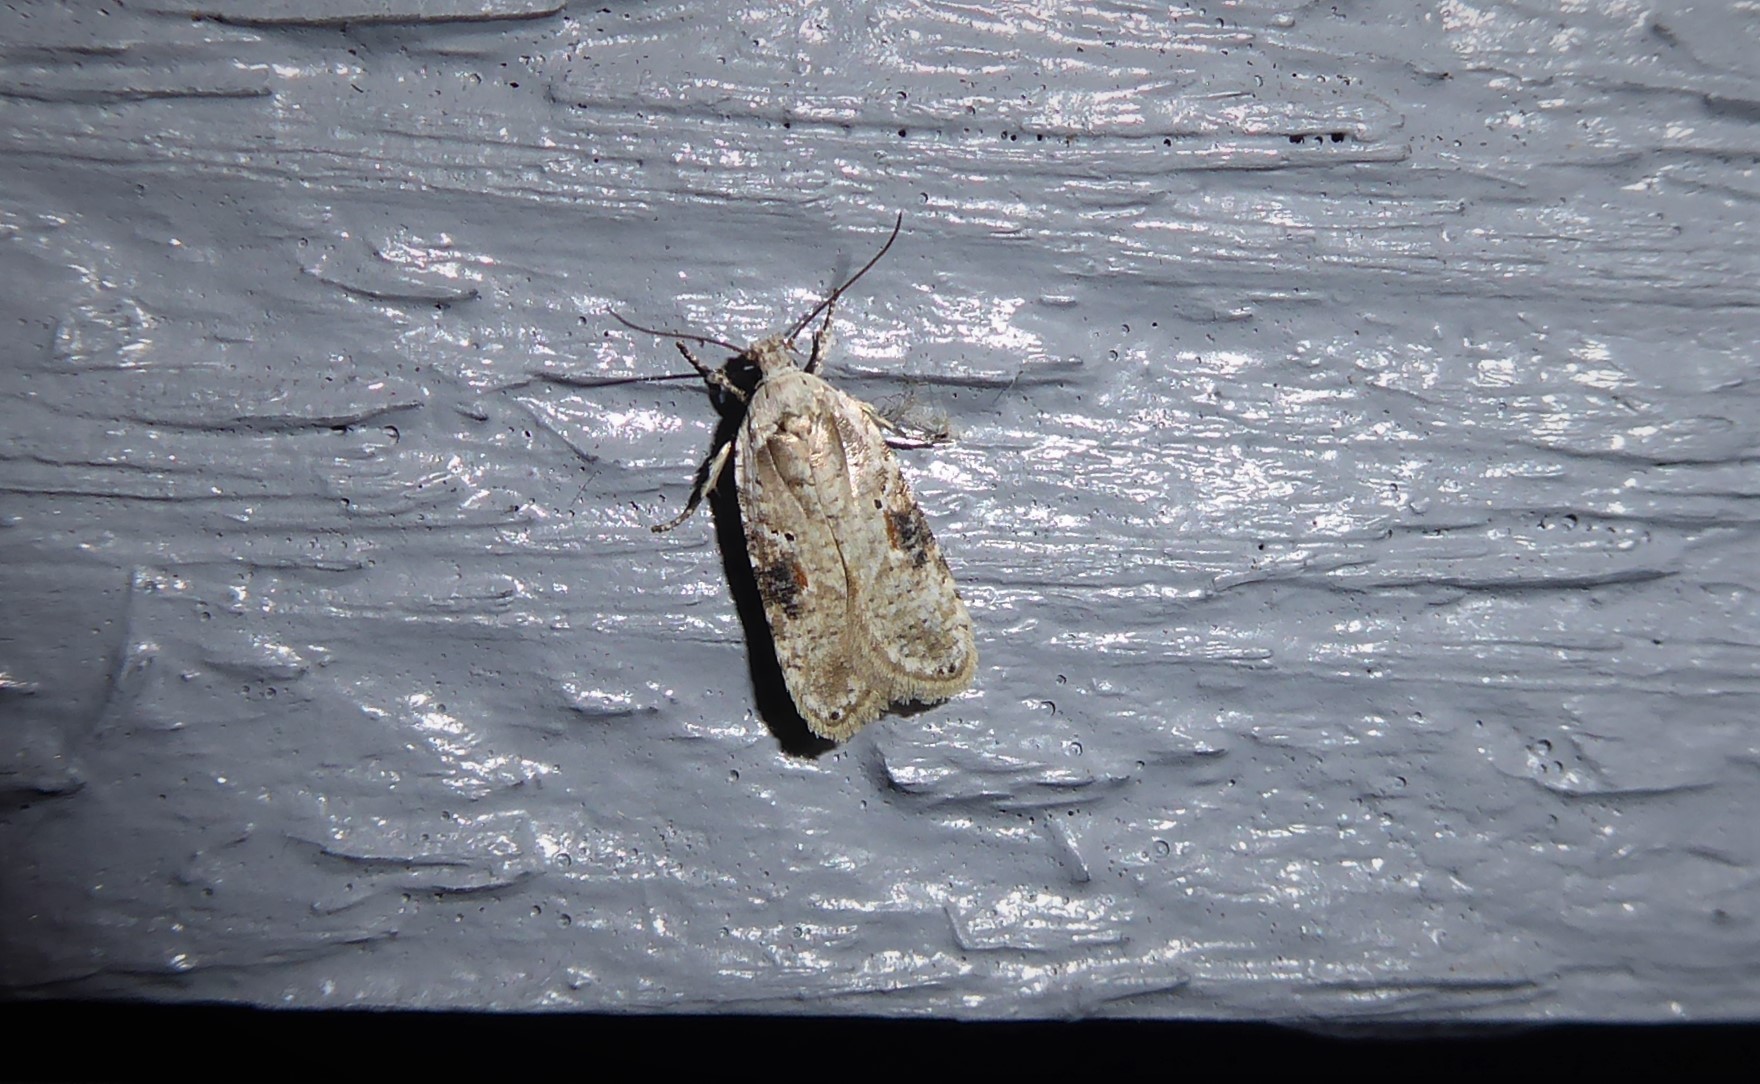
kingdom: Animalia
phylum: Arthropoda
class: Insecta
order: Lepidoptera
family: Depressariidae
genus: Agonopterix
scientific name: Agonopterix alstroemeriana
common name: Moth
